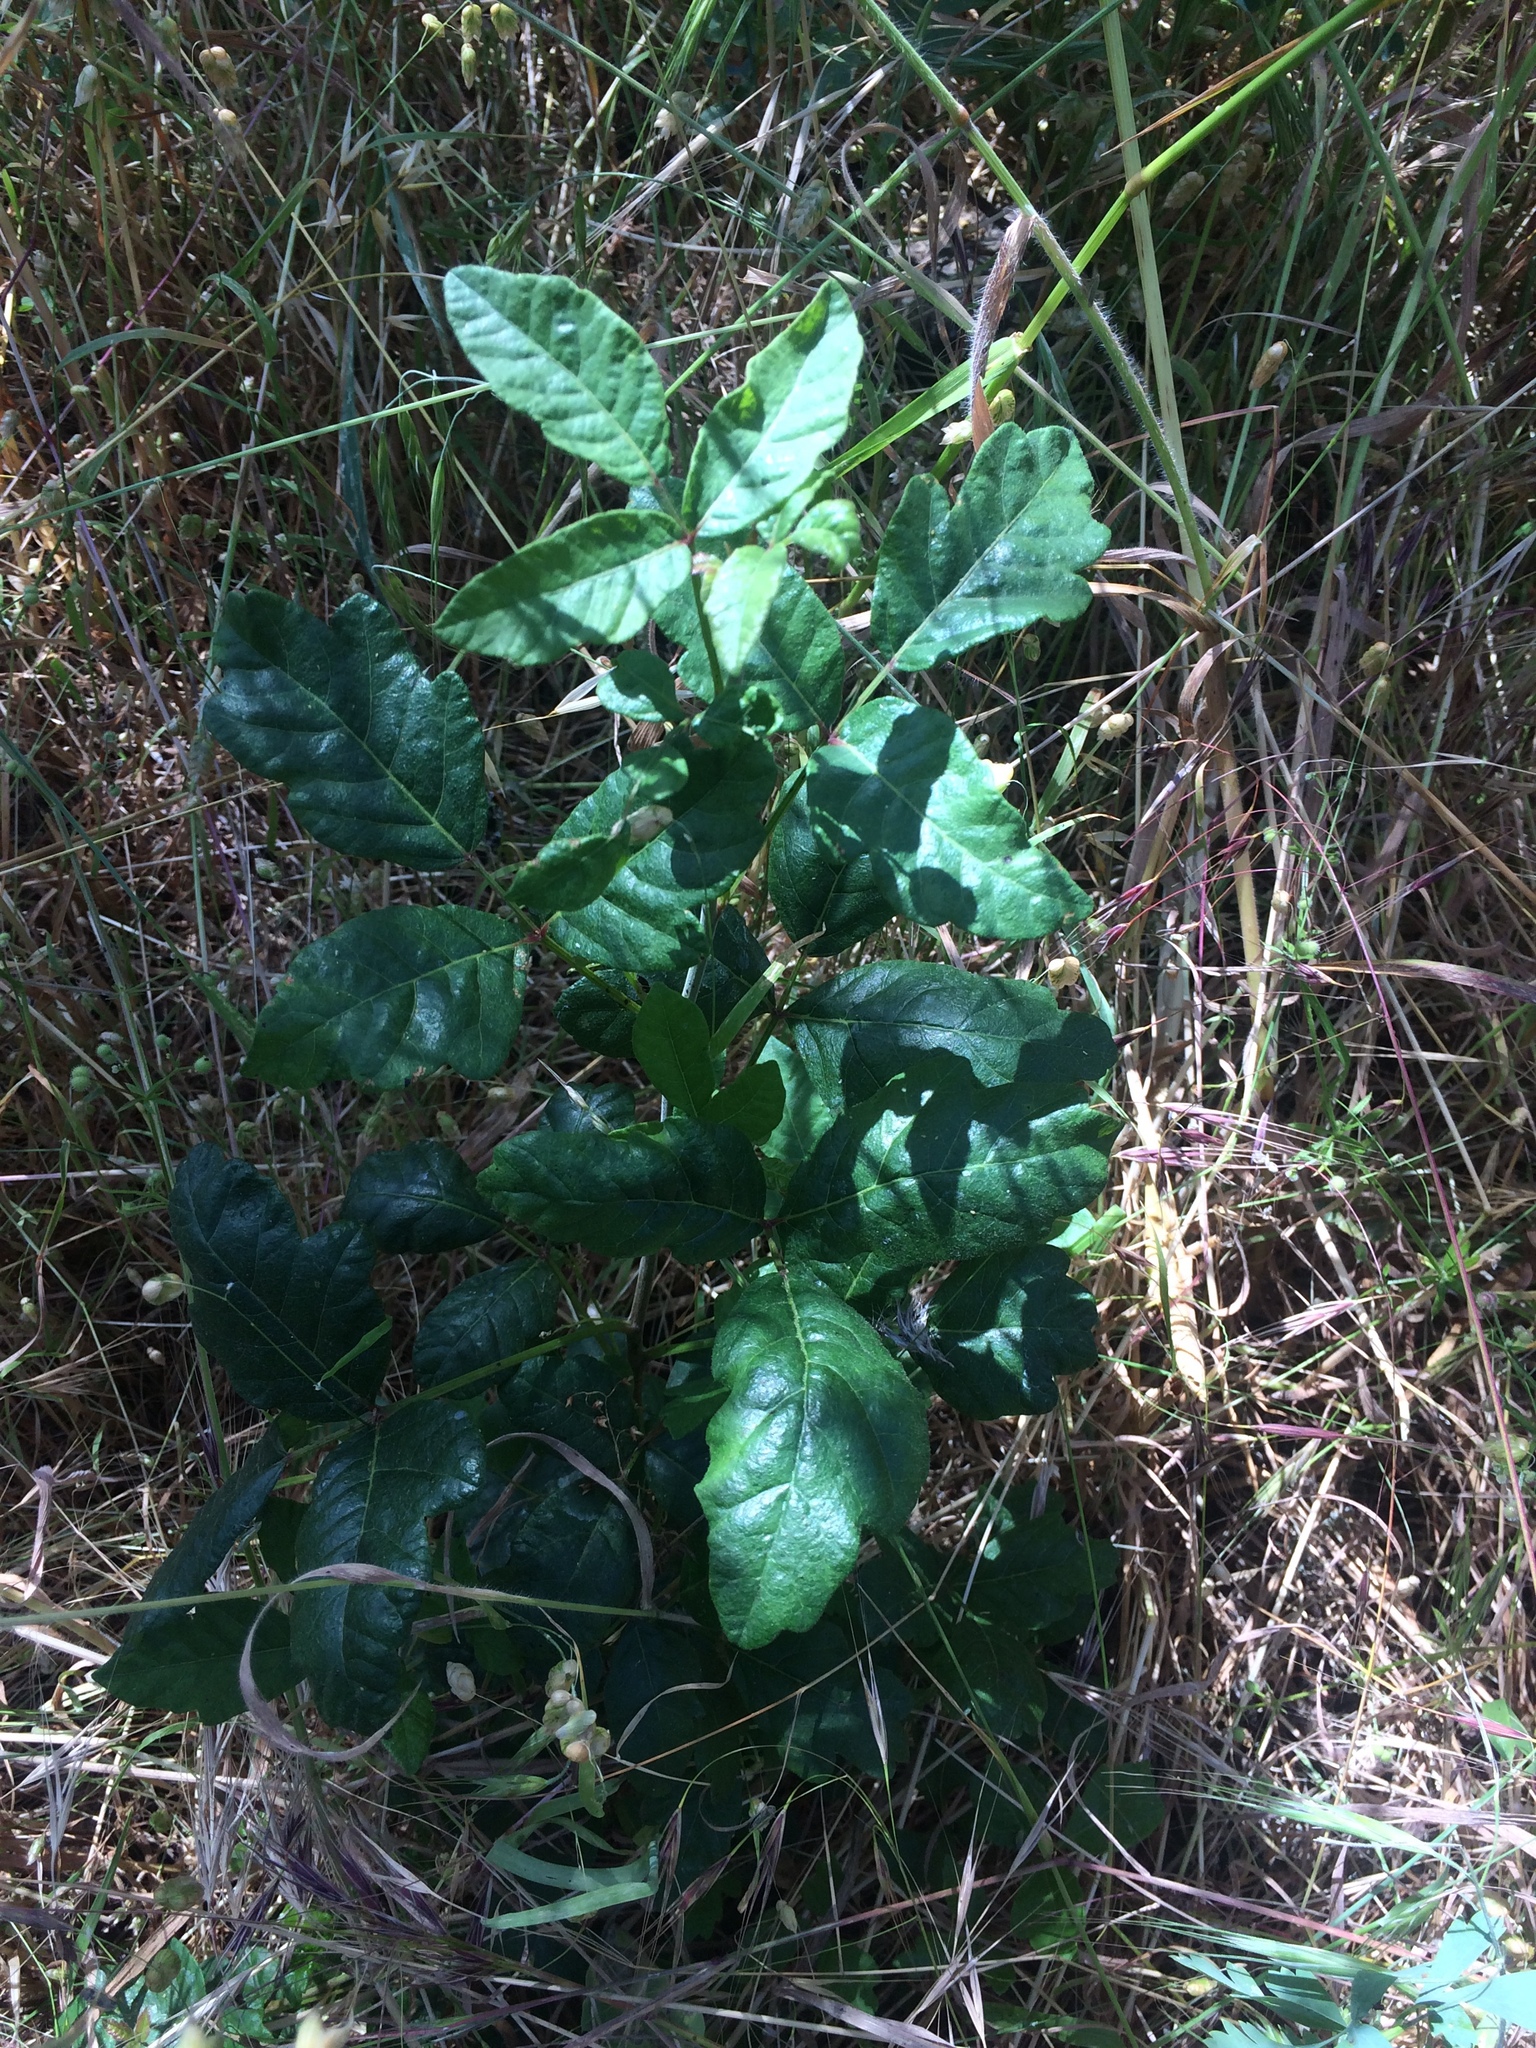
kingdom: Plantae
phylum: Tracheophyta
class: Magnoliopsida
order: Sapindales
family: Anacardiaceae
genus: Toxicodendron
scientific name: Toxicodendron diversilobum
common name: Pacific poison-oak
